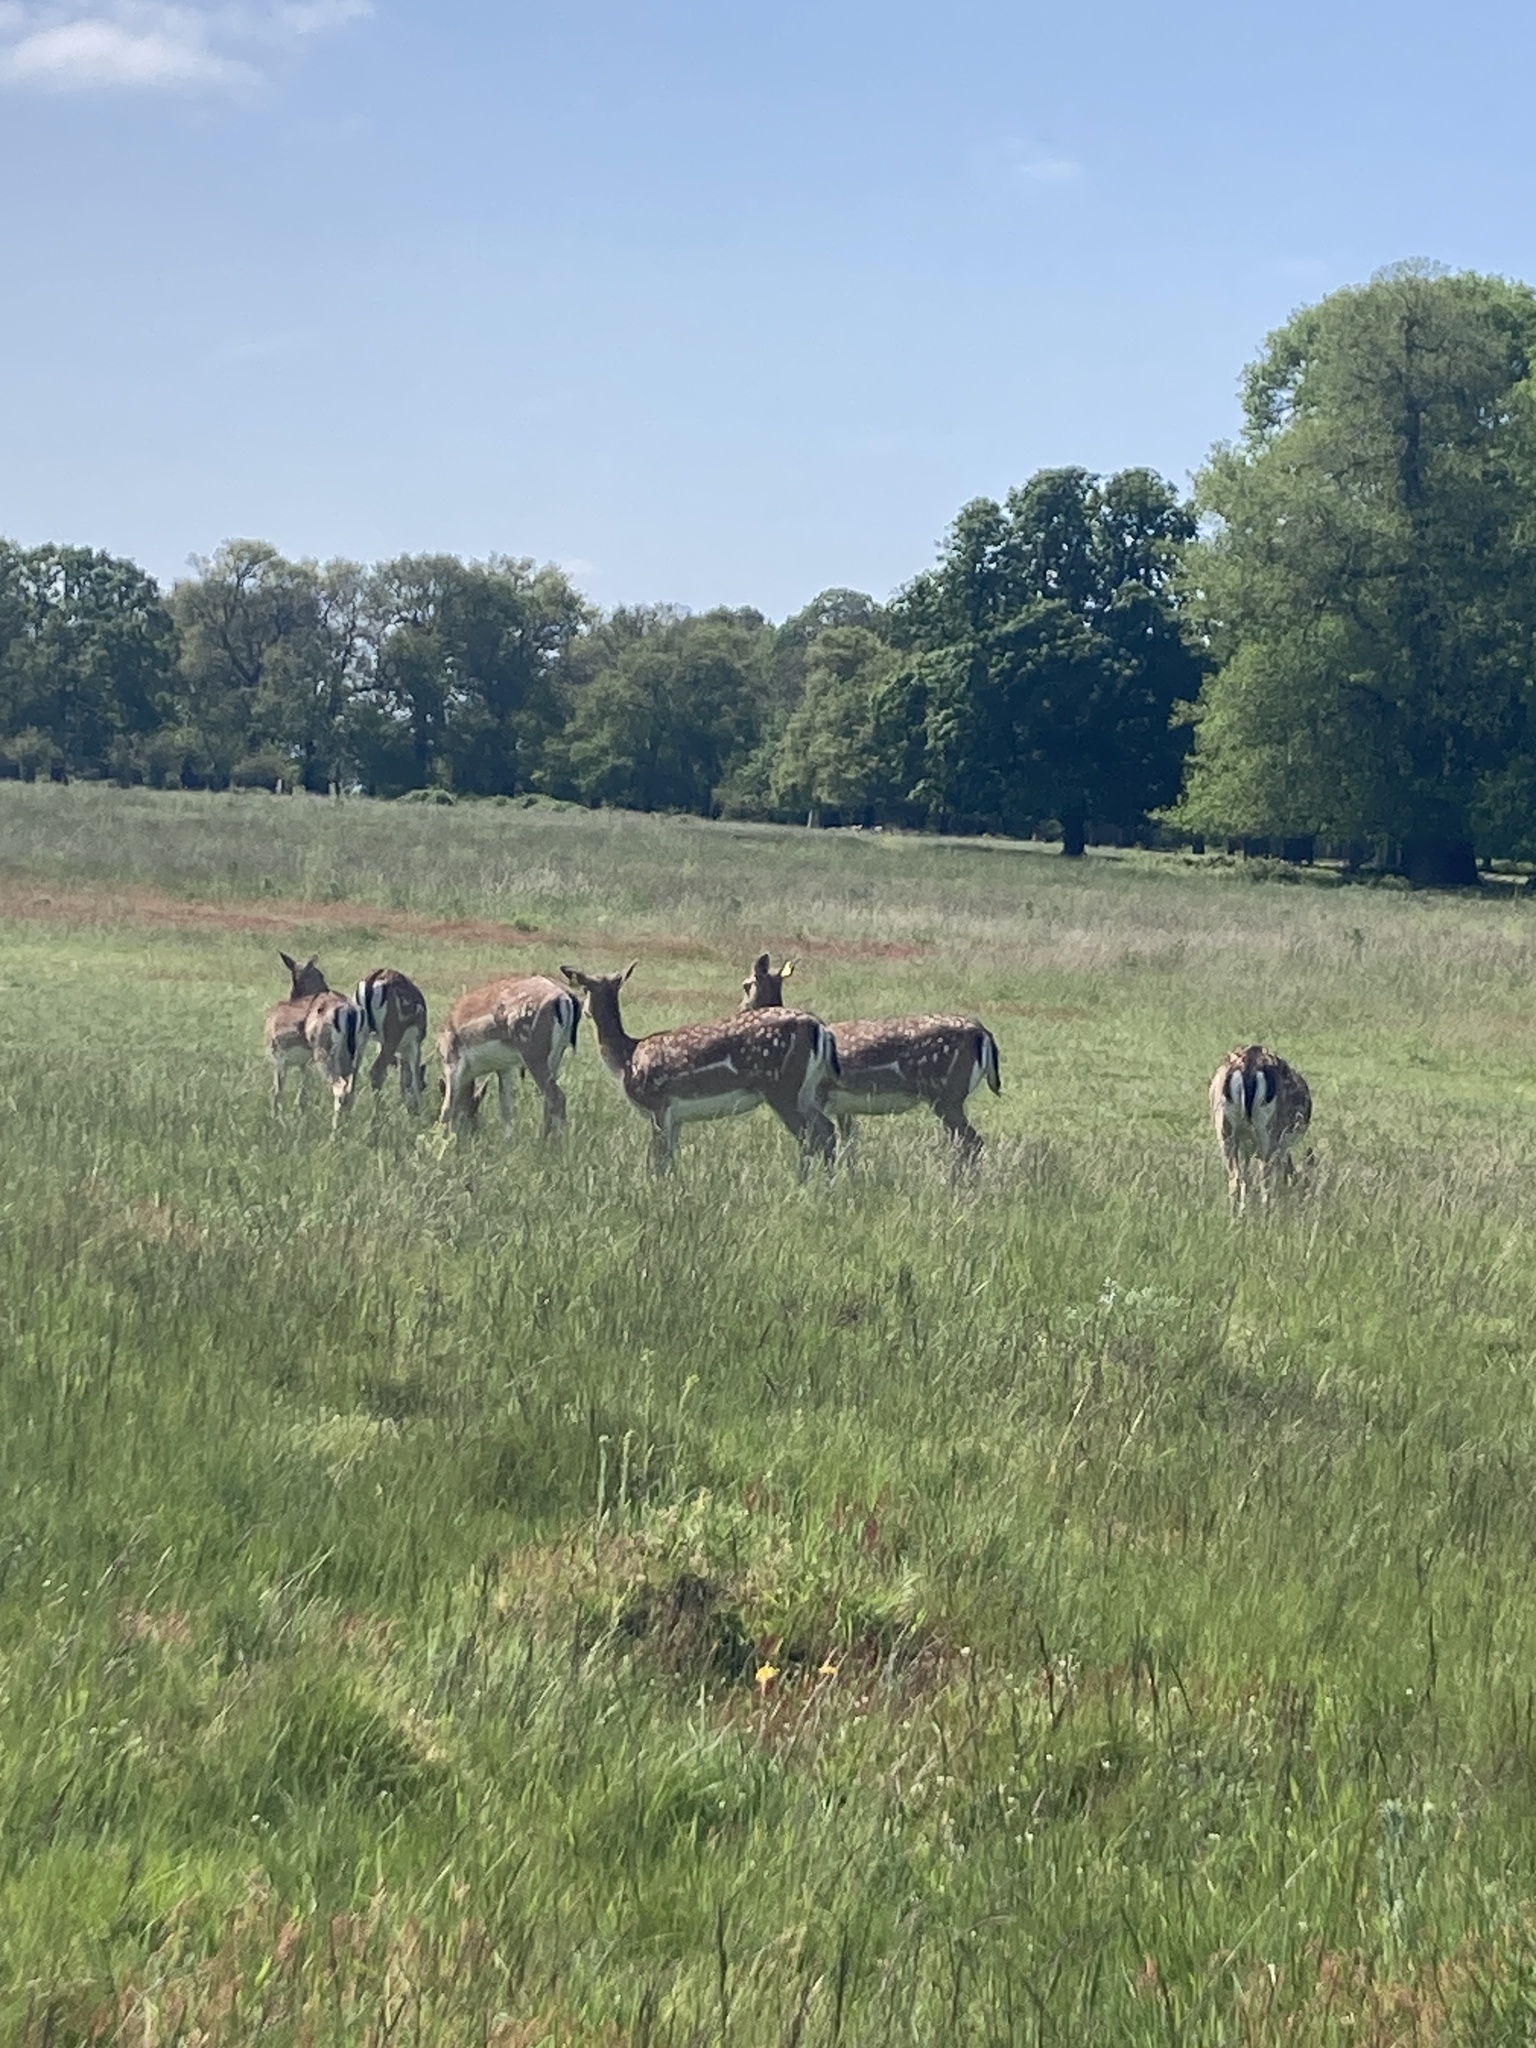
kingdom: Animalia
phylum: Chordata
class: Mammalia
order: Artiodactyla
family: Cervidae
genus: Dama
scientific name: Dama dama
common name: Fallow deer
